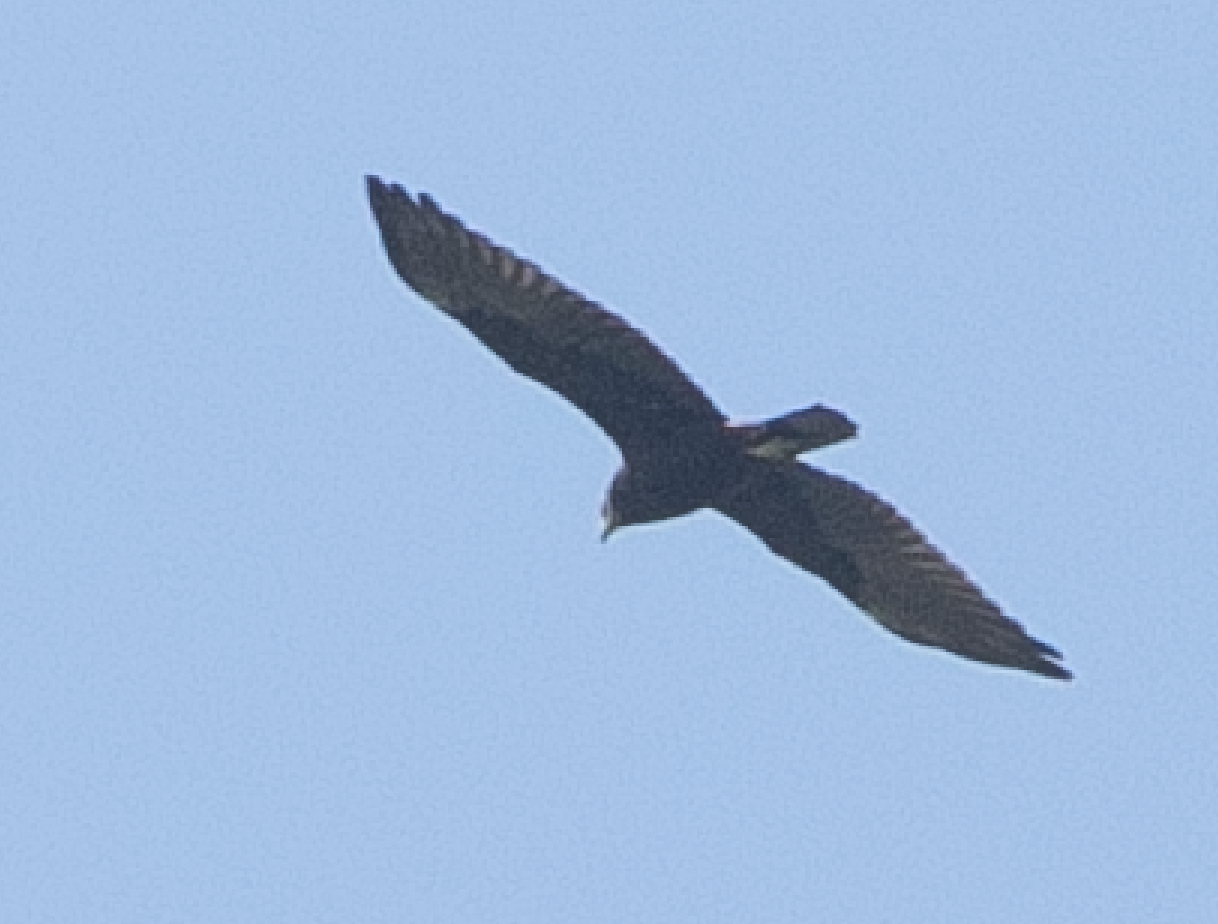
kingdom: Animalia
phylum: Chordata
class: Aves
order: Accipitriformes
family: Accipitridae
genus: Circus
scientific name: Circus aeruginosus
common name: Western marsh harrier
